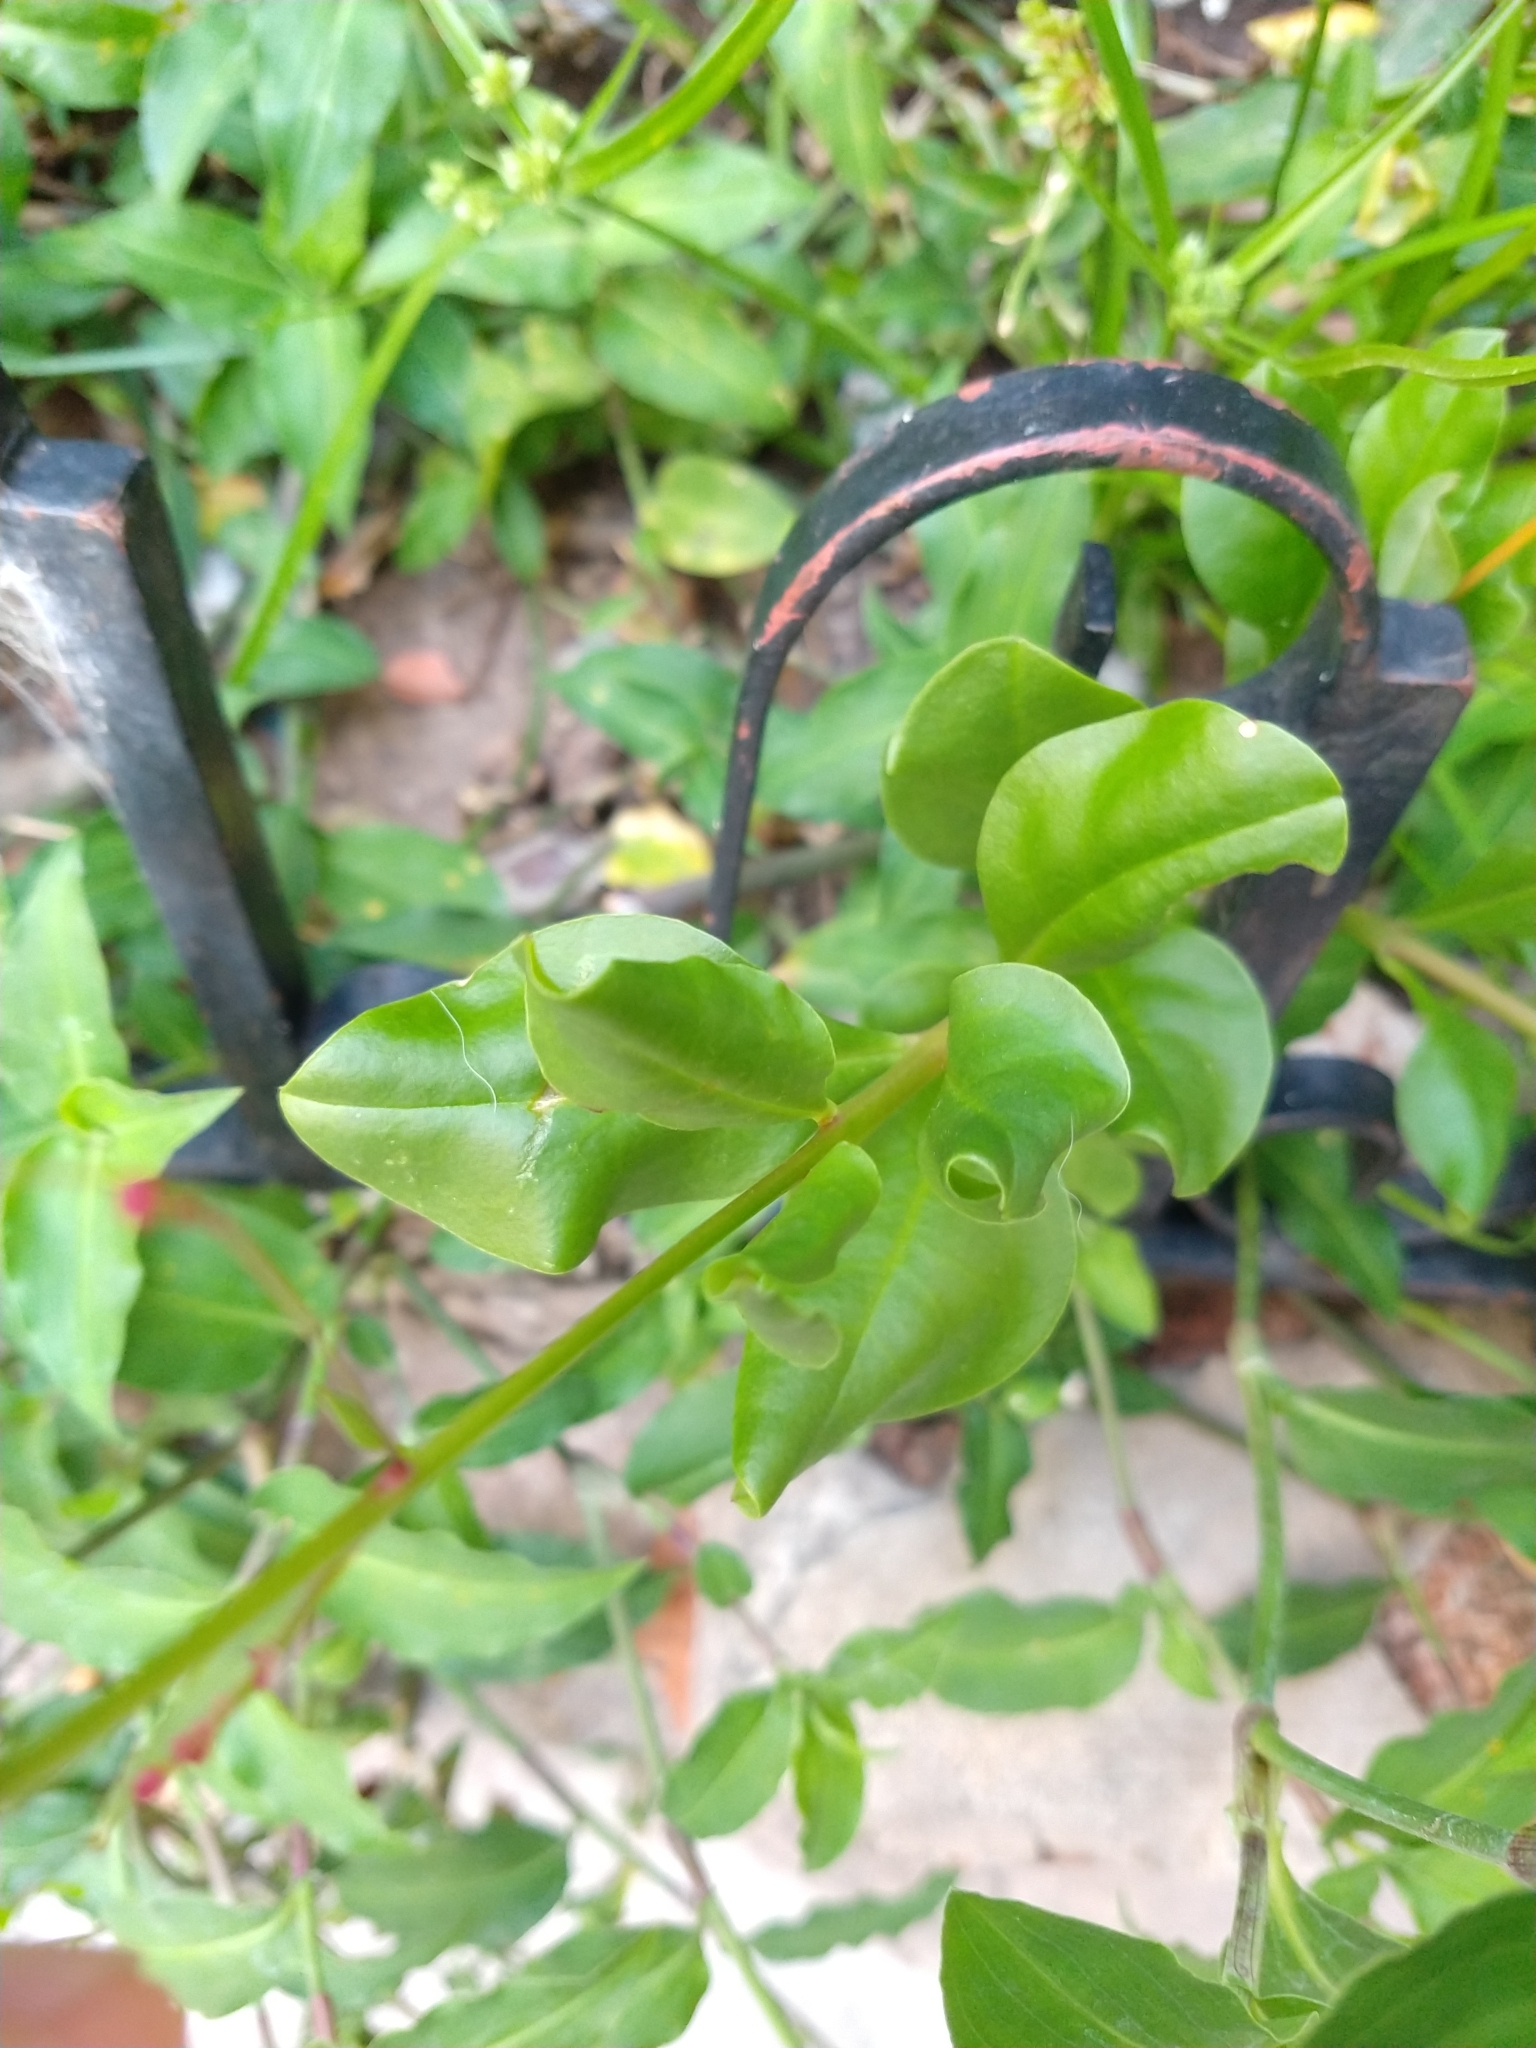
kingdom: Plantae
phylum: Tracheophyta
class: Magnoliopsida
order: Caryophyllales
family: Talinaceae
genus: Talinum
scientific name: Talinum paniculatum
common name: Jewels of opar
